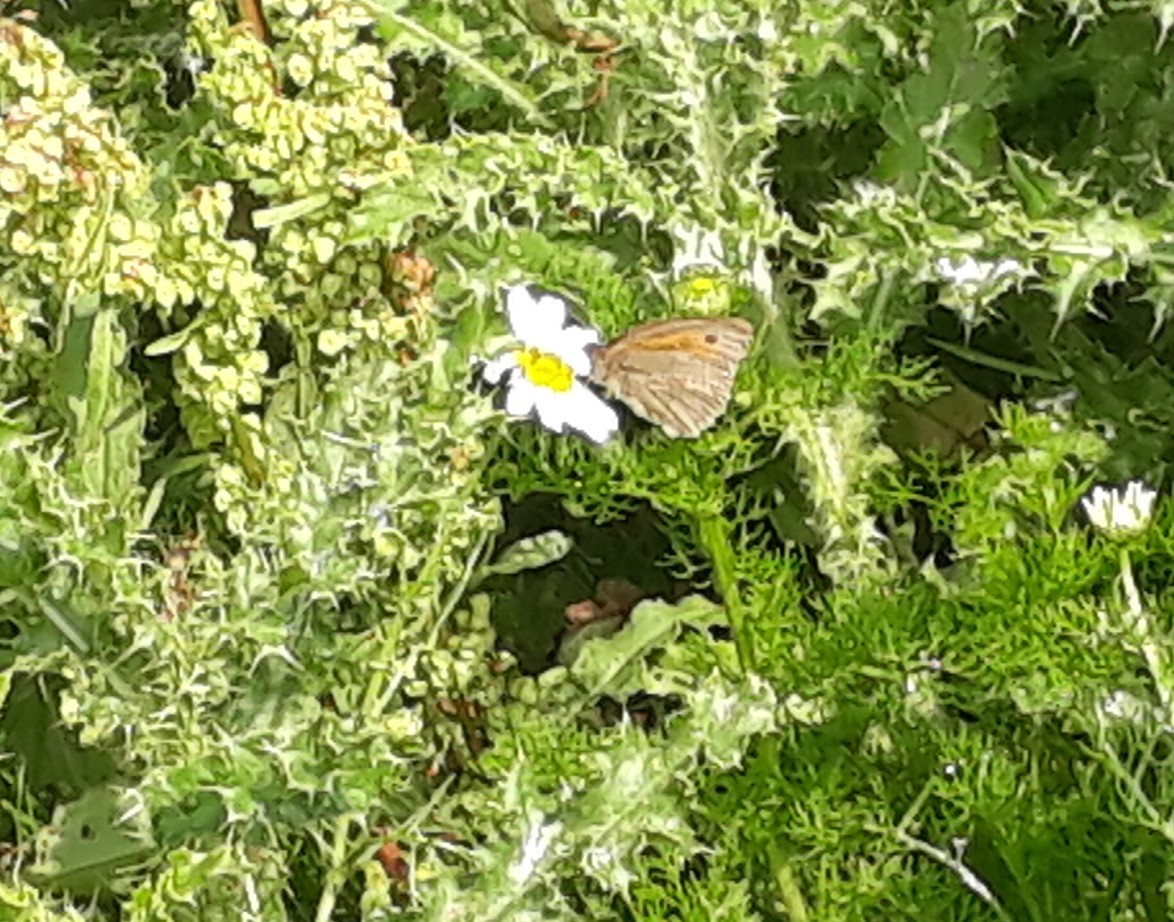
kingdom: Animalia
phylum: Arthropoda
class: Insecta
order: Lepidoptera
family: Nymphalidae
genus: Maniola
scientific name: Maniola jurtina
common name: Meadow brown
